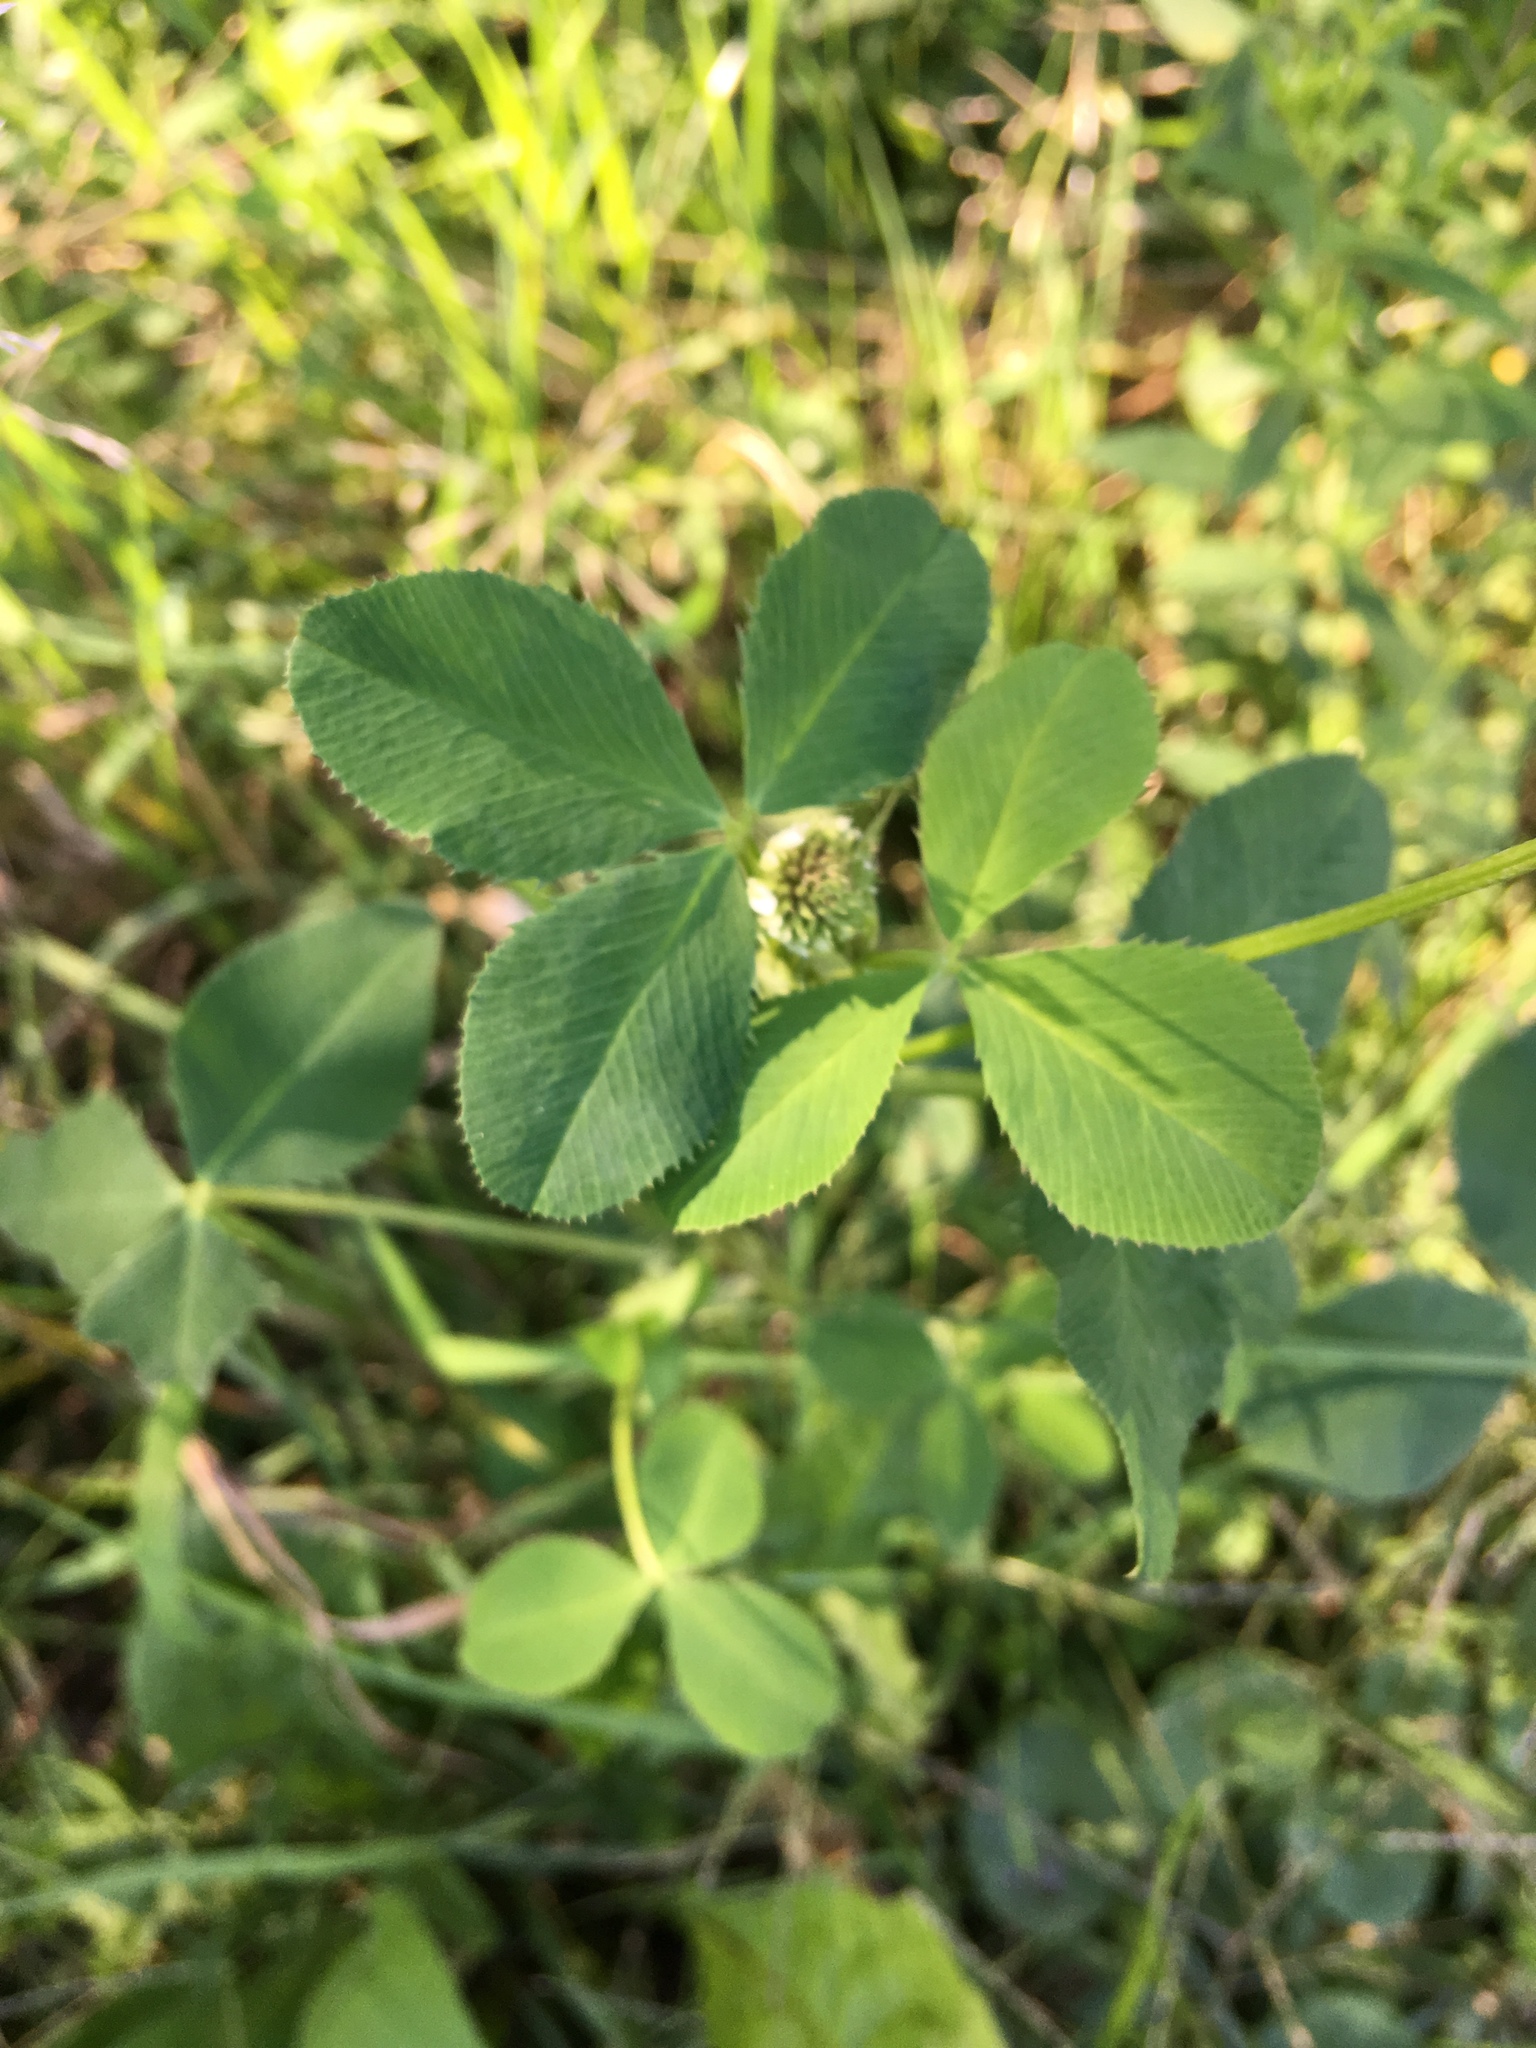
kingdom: Plantae
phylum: Tracheophyta
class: Magnoliopsida
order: Fabales
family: Fabaceae
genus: Trifolium
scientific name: Trifolium repens
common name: White clover
